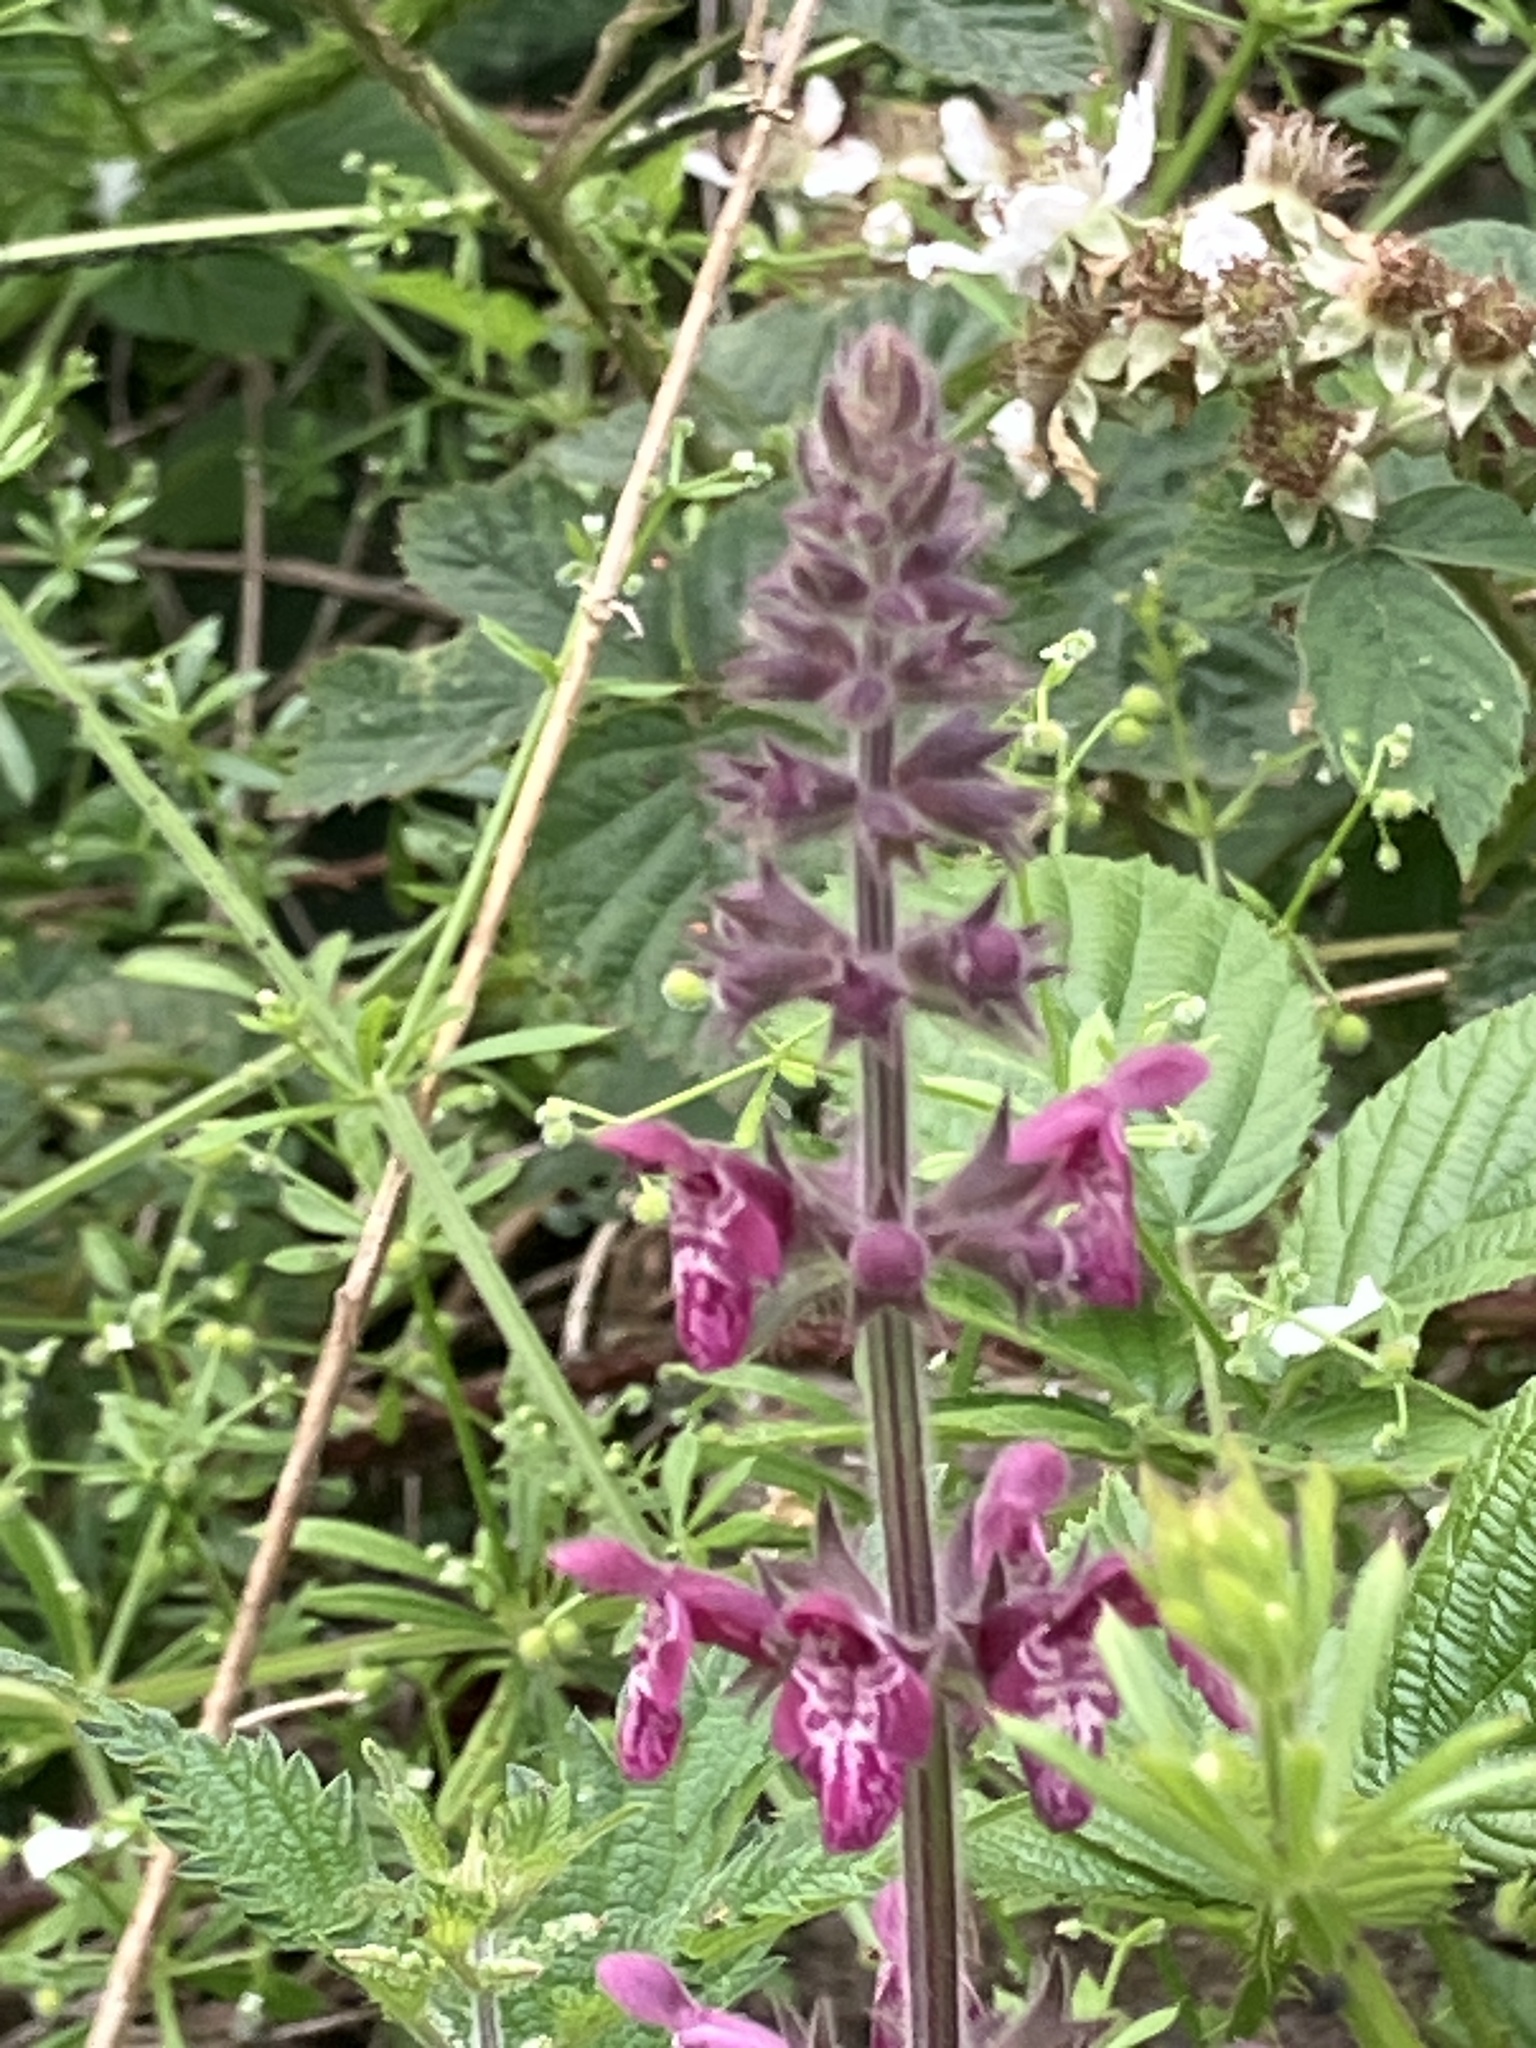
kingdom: Plantae
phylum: Tracheophyta
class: Magnoliopsida
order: Lamiales
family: Lamiaceae
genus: Stachys
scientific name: Stachys sylvatica
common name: Hedge woundwort
